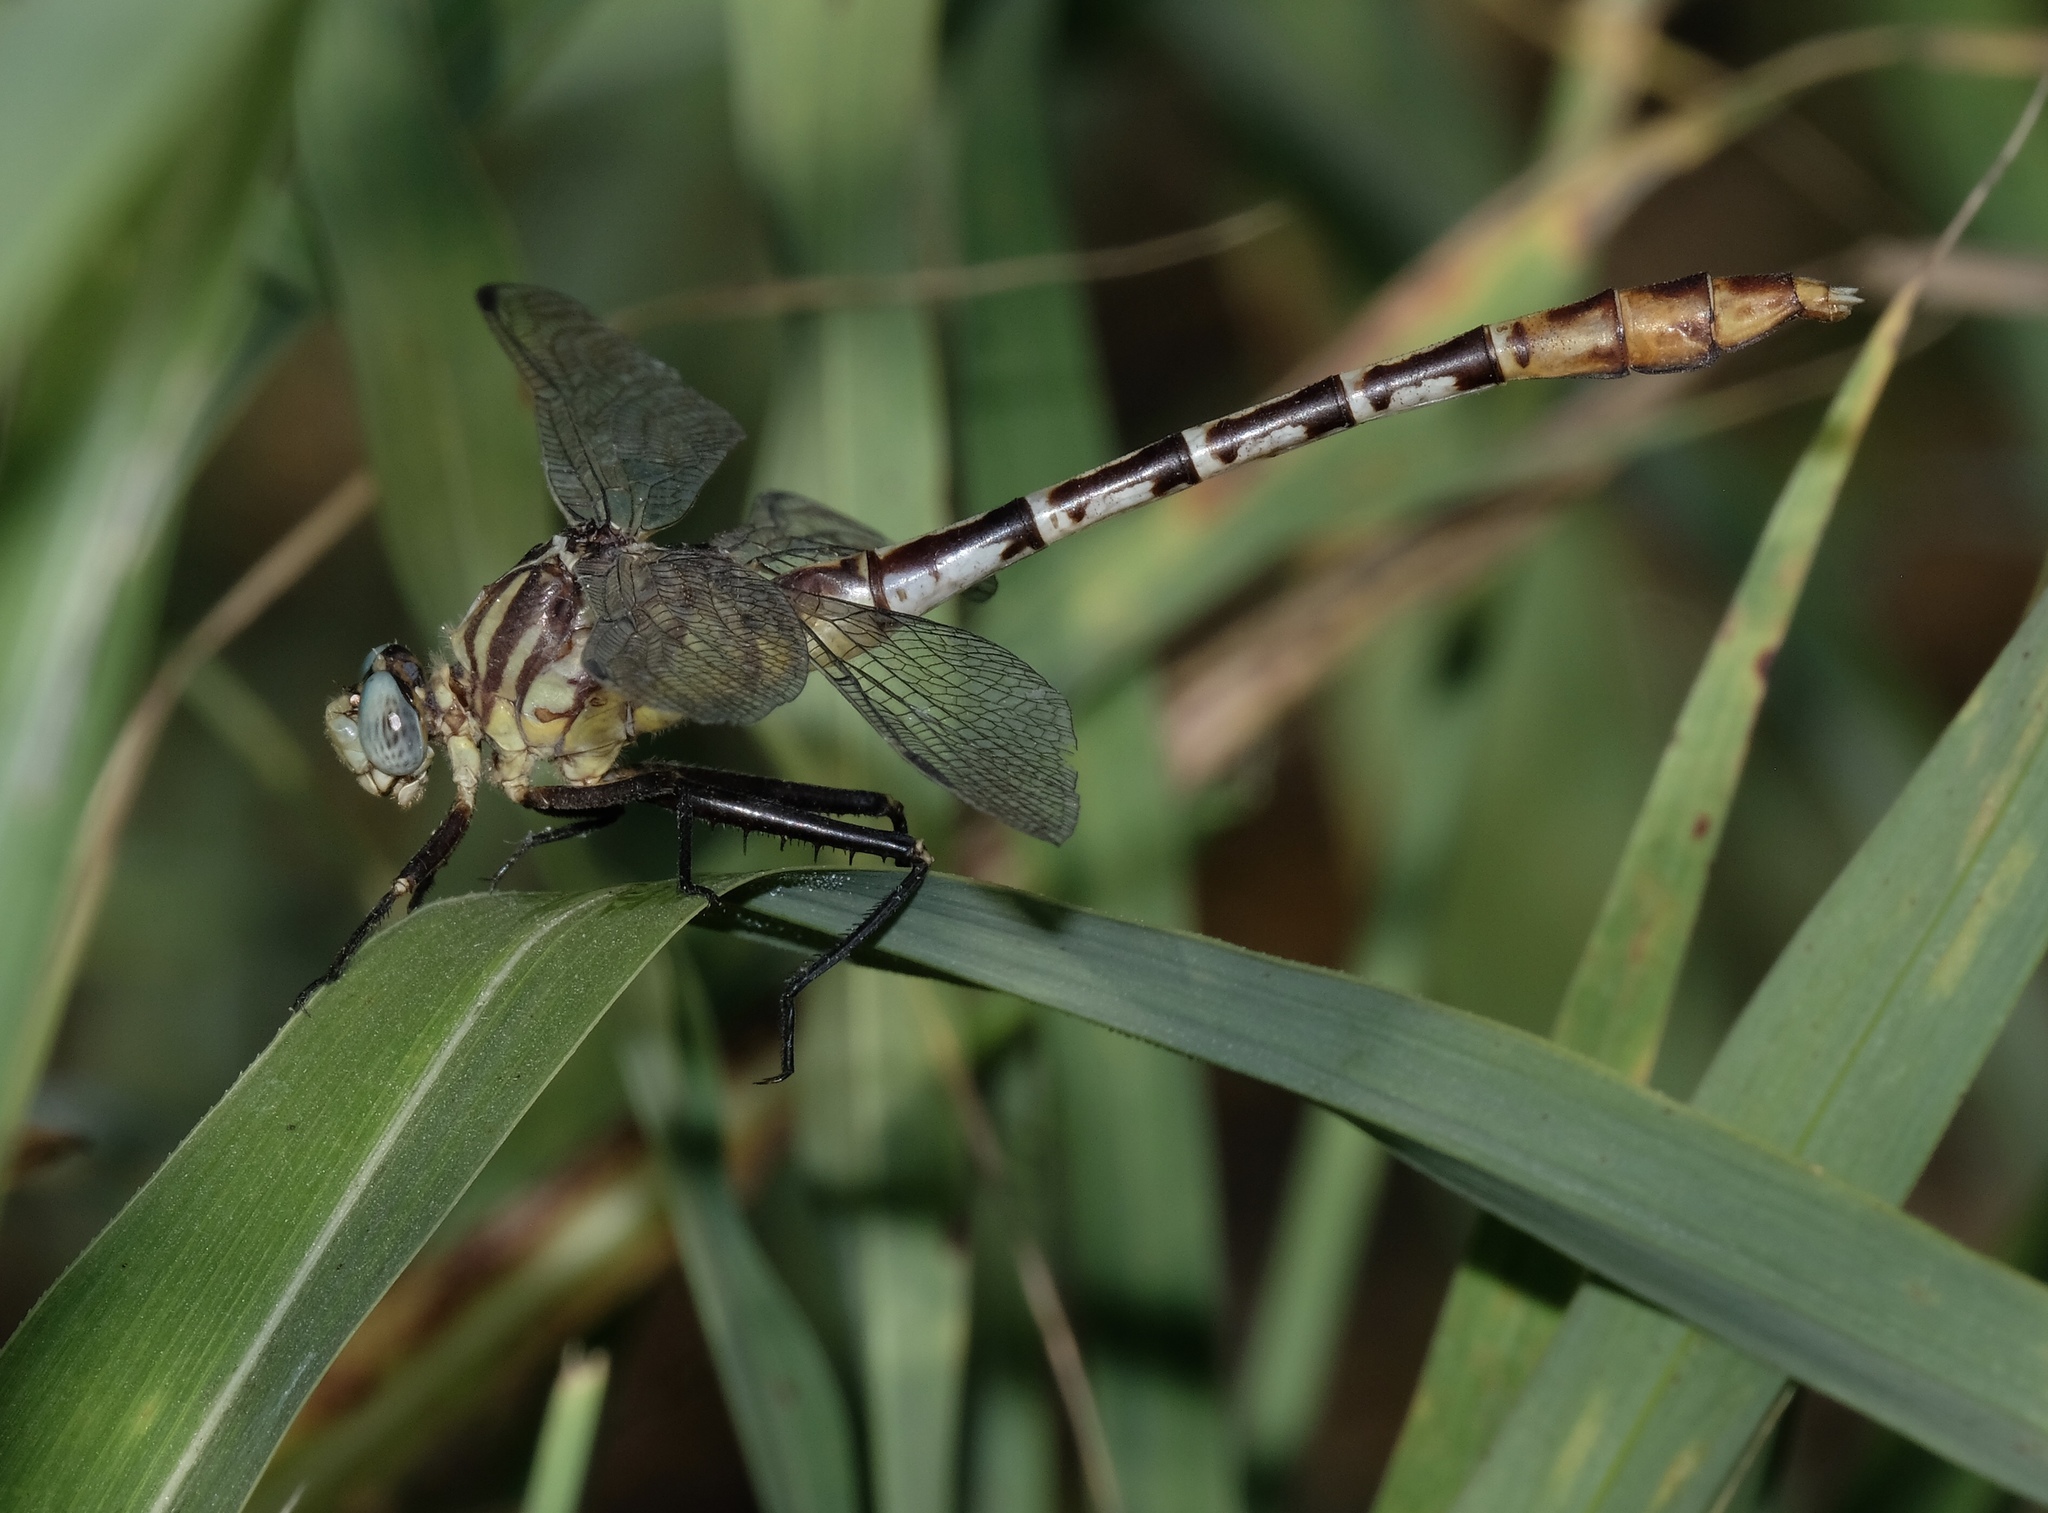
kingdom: Animalia
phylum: Arthropoda
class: Insecta
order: Odonata
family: Gomphidae
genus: Dromogomphus
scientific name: Dromogomphus spoliatus
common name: Flag-tailed spinyleg
